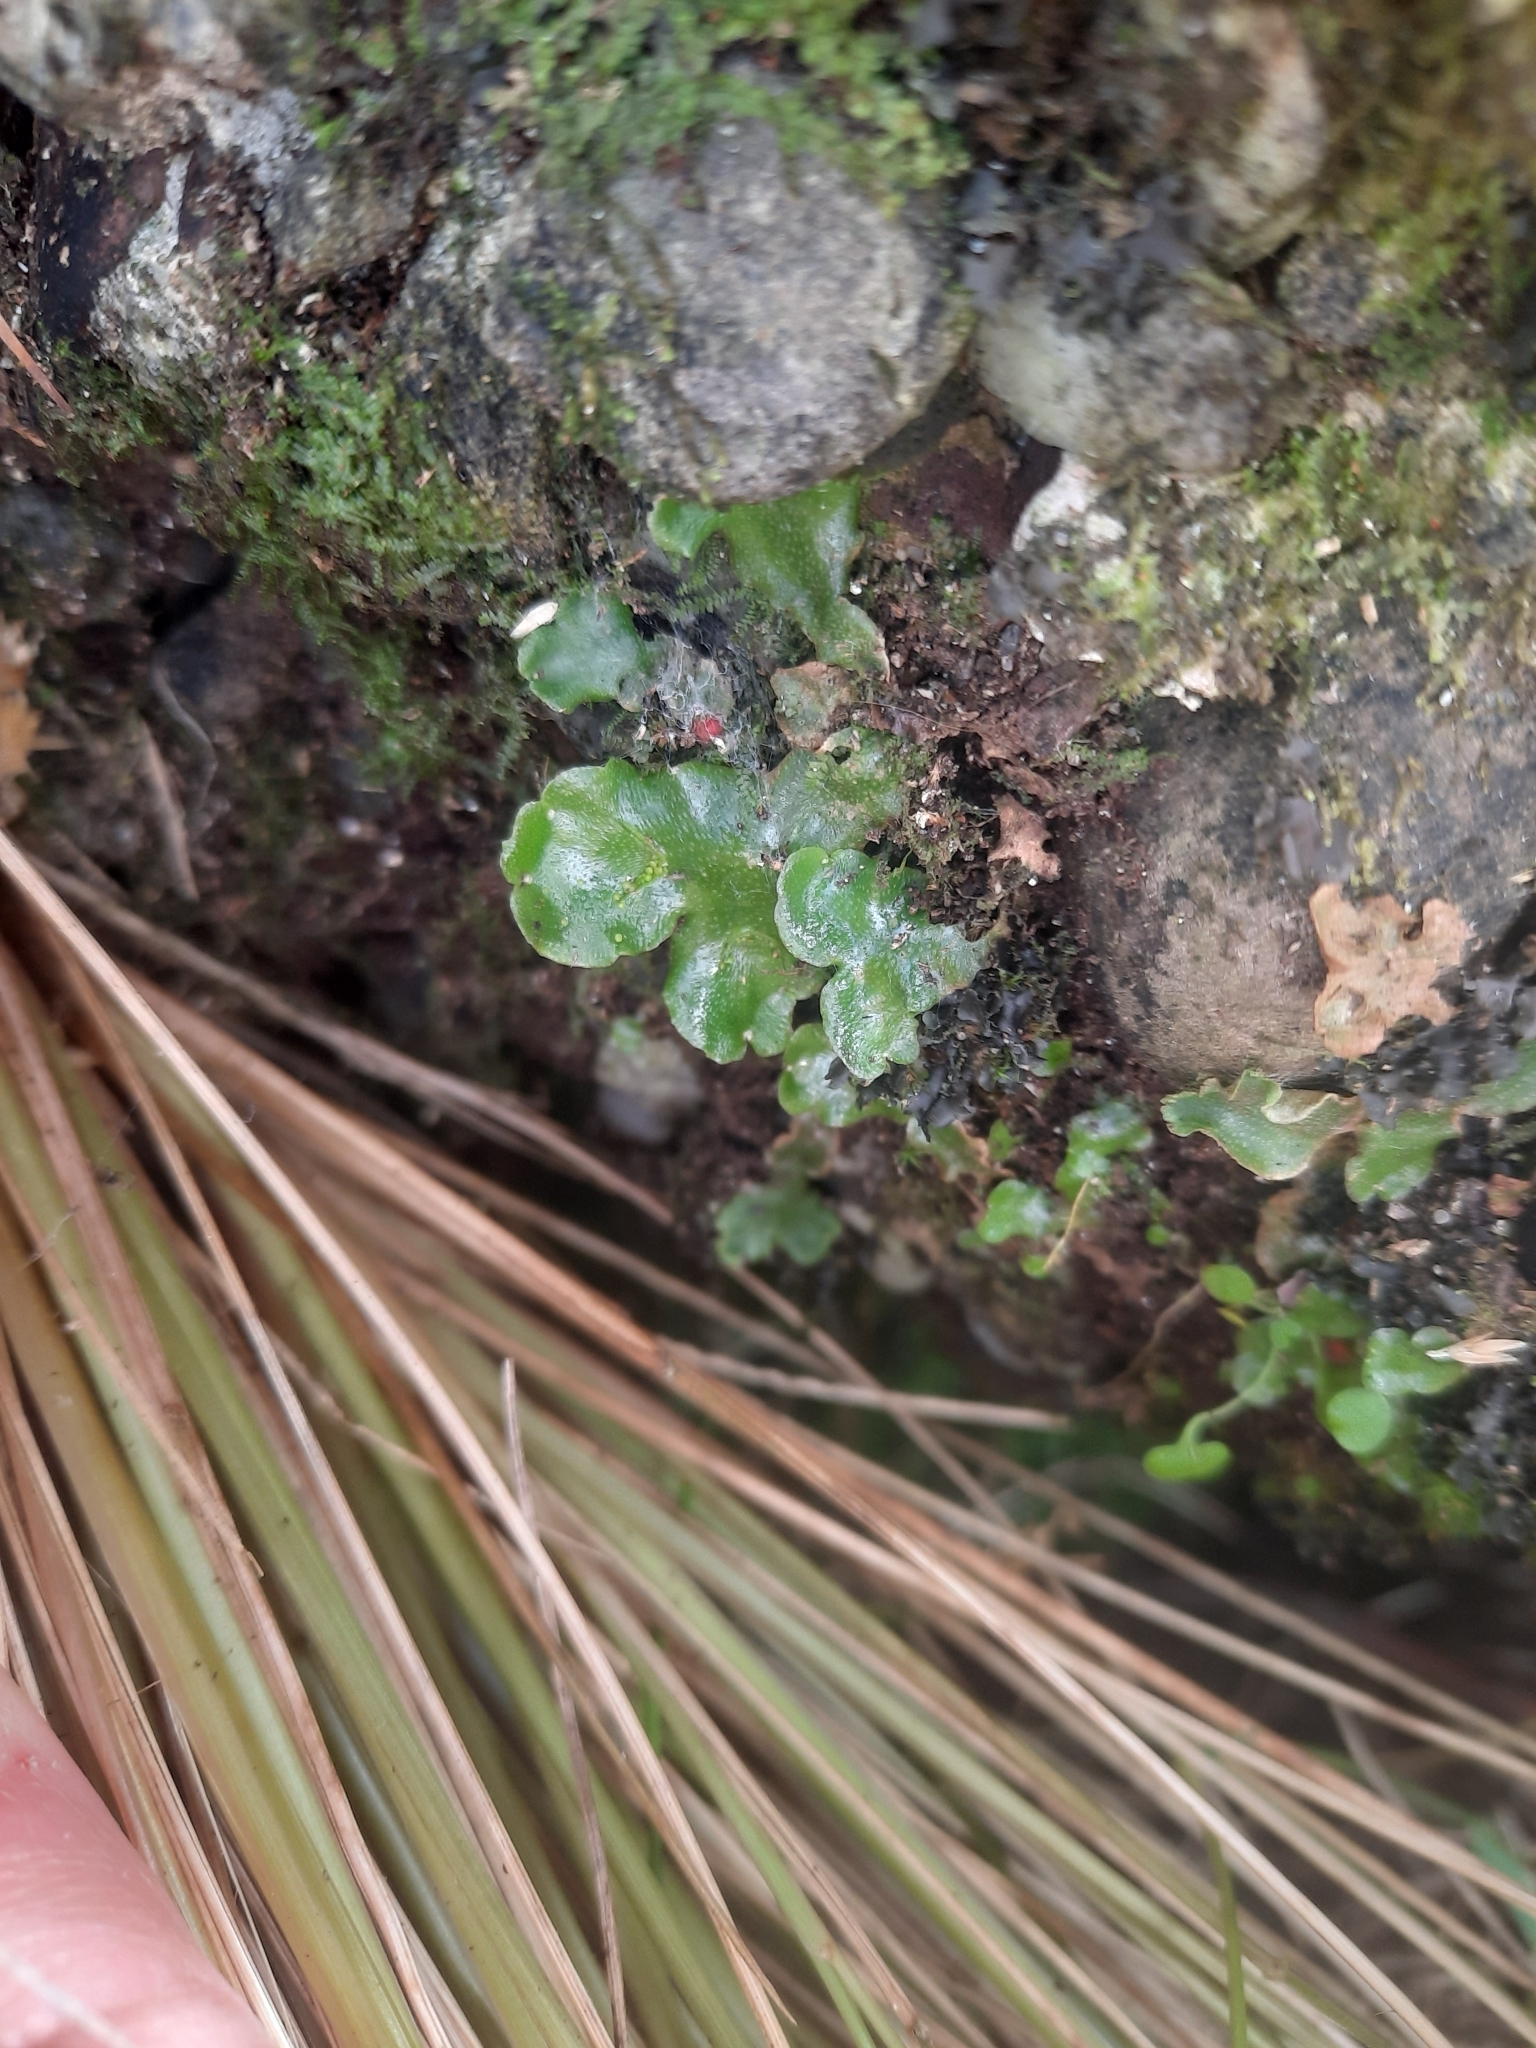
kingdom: Plantae
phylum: Marchantiophyta
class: Marchantiopsida
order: Lunulariales
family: Lunulariaceae
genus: Lunularia
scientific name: Lunularia cruciata
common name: Crescent-cup liverwort
